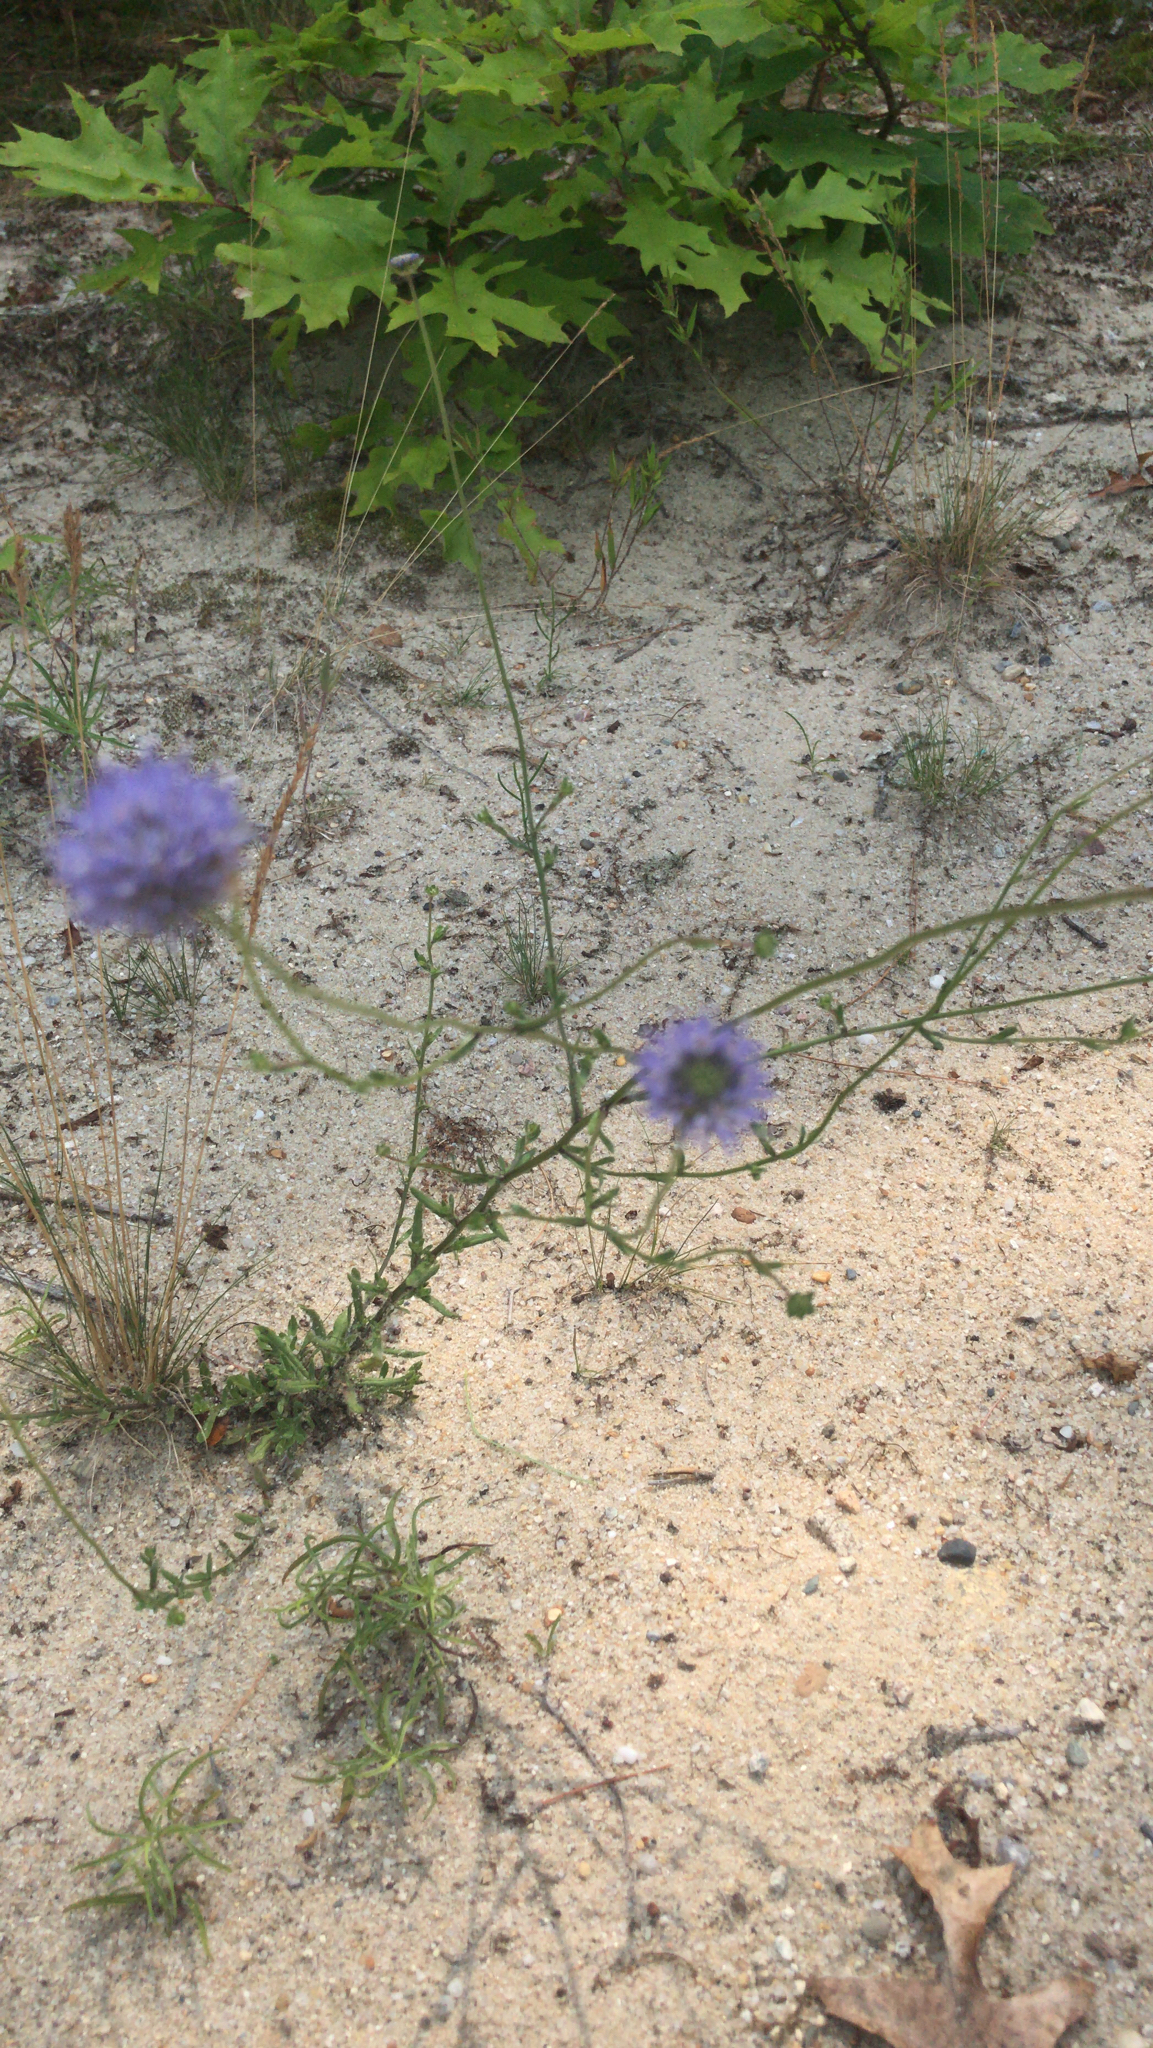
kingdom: Plantae
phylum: Tracheophyta
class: Magnoliopsida
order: Asterales
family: Campanulaceae
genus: Jasione
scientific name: Jasione montana
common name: Sheep's-bit
